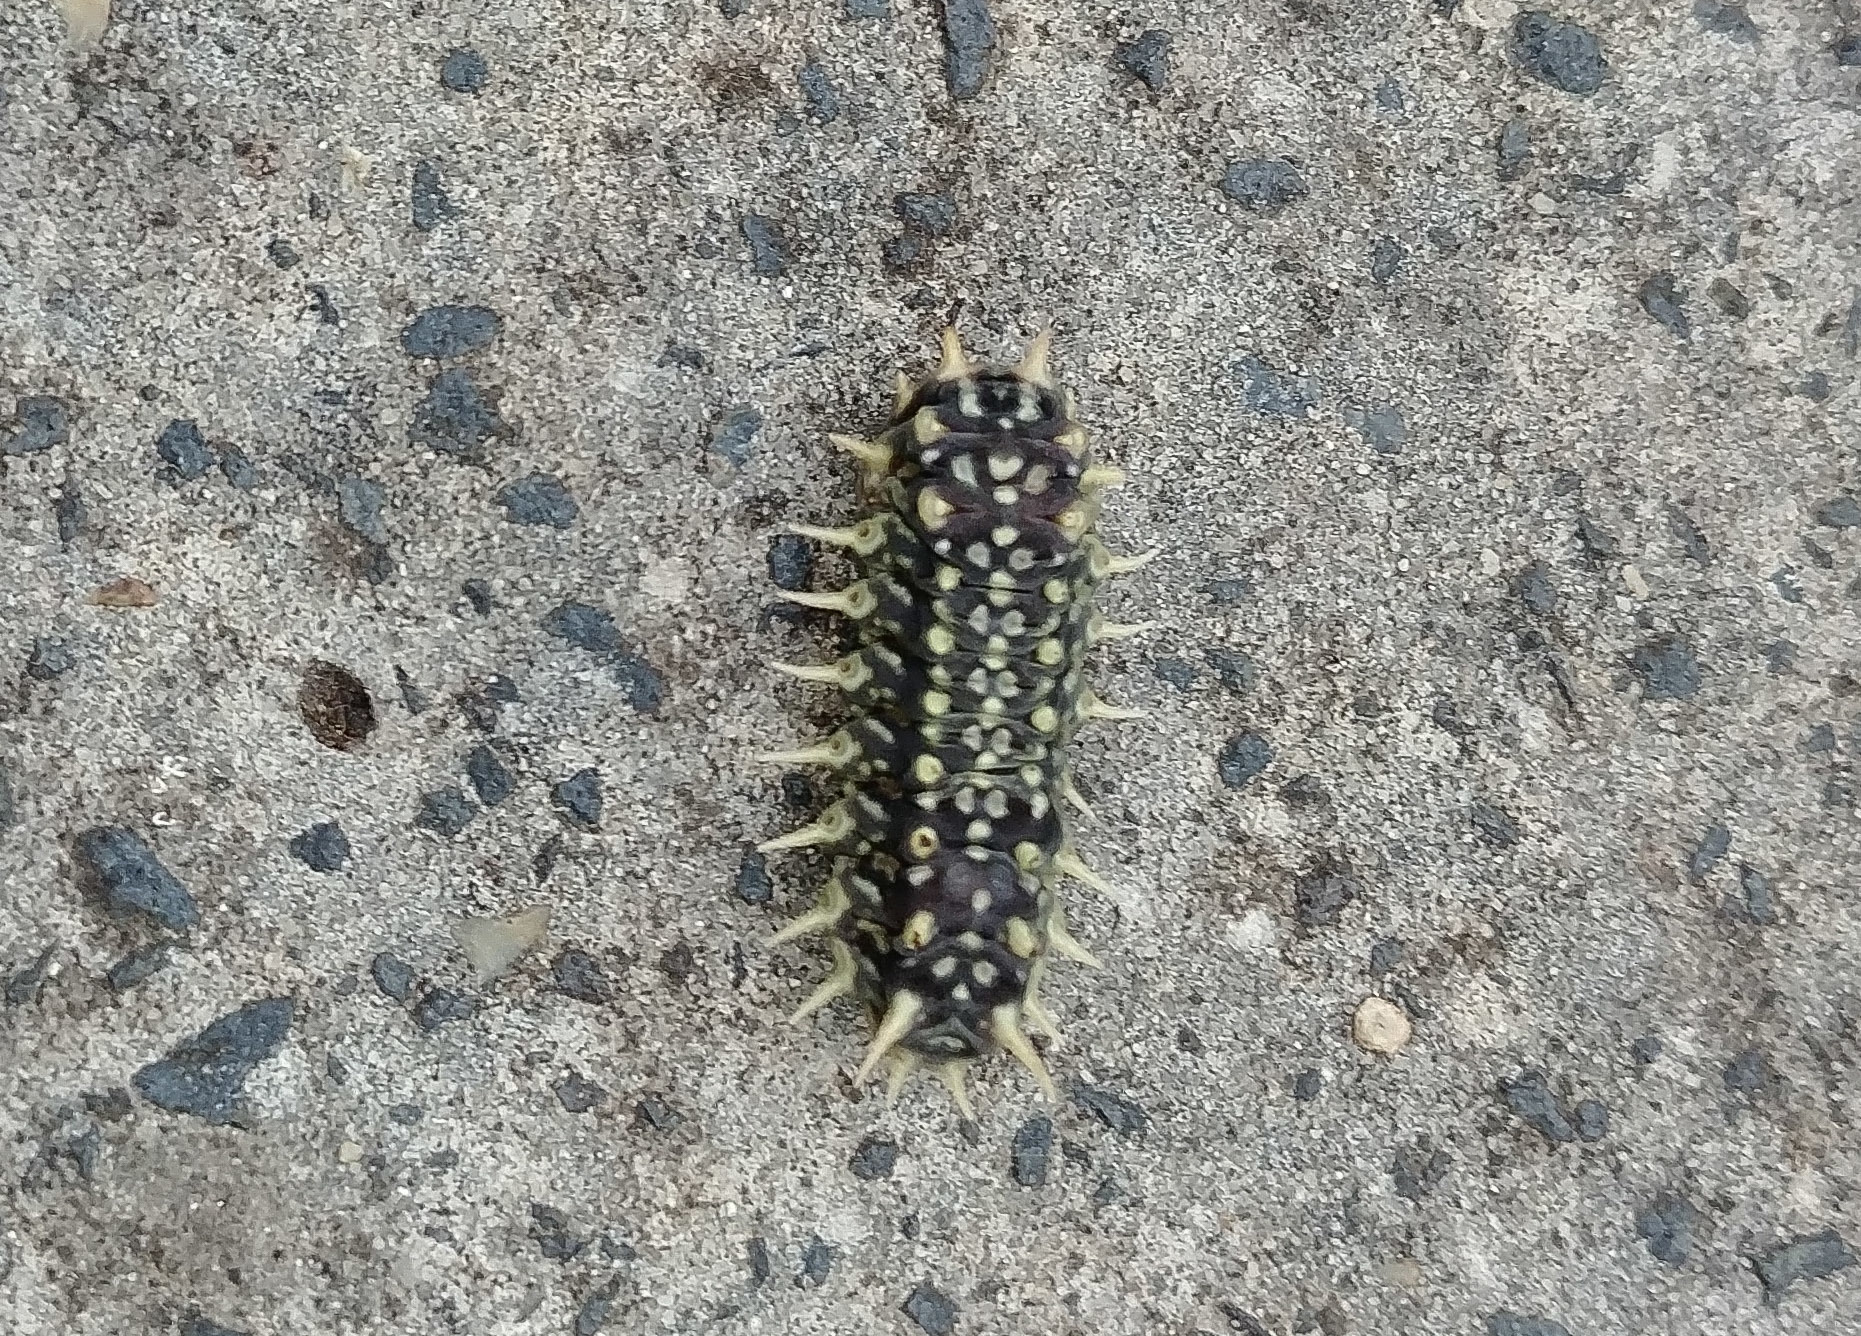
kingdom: Animalia
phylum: Arthropoda
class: Insecta
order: Lepidoptera
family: Limacodidae
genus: Doratifera
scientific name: Doratifera casta
